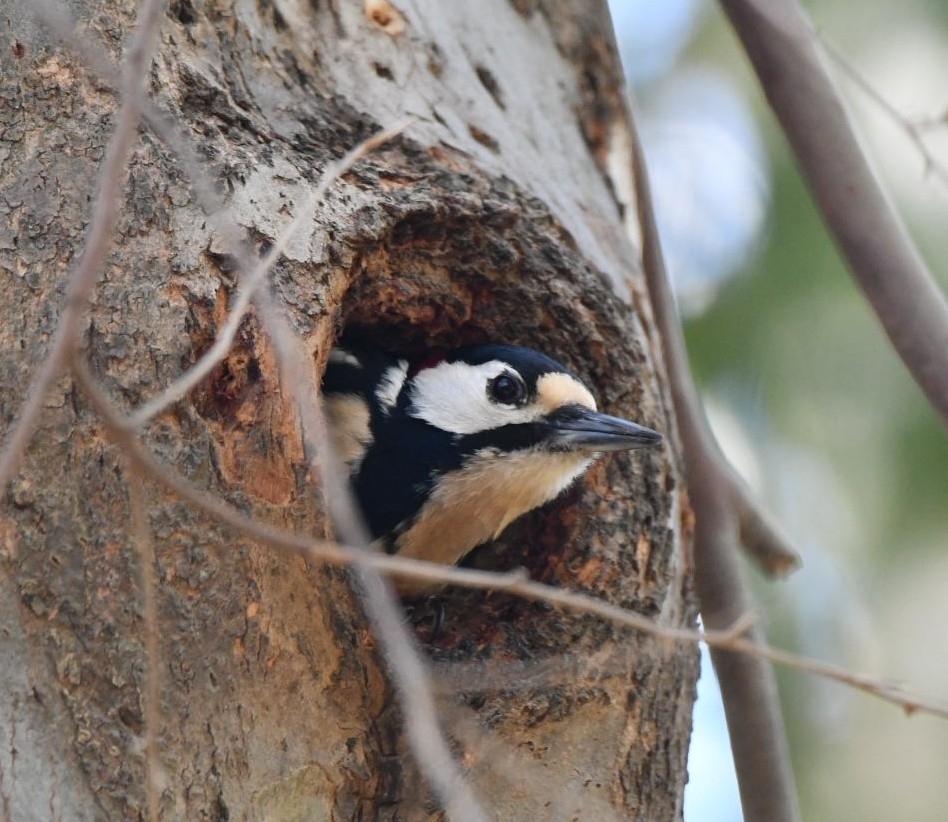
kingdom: Animalia
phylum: Chordata
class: Aves
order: Piciformes
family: Picidae
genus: Dendrocopos
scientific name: Dendrocopos major
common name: Great spotted woodpecker
